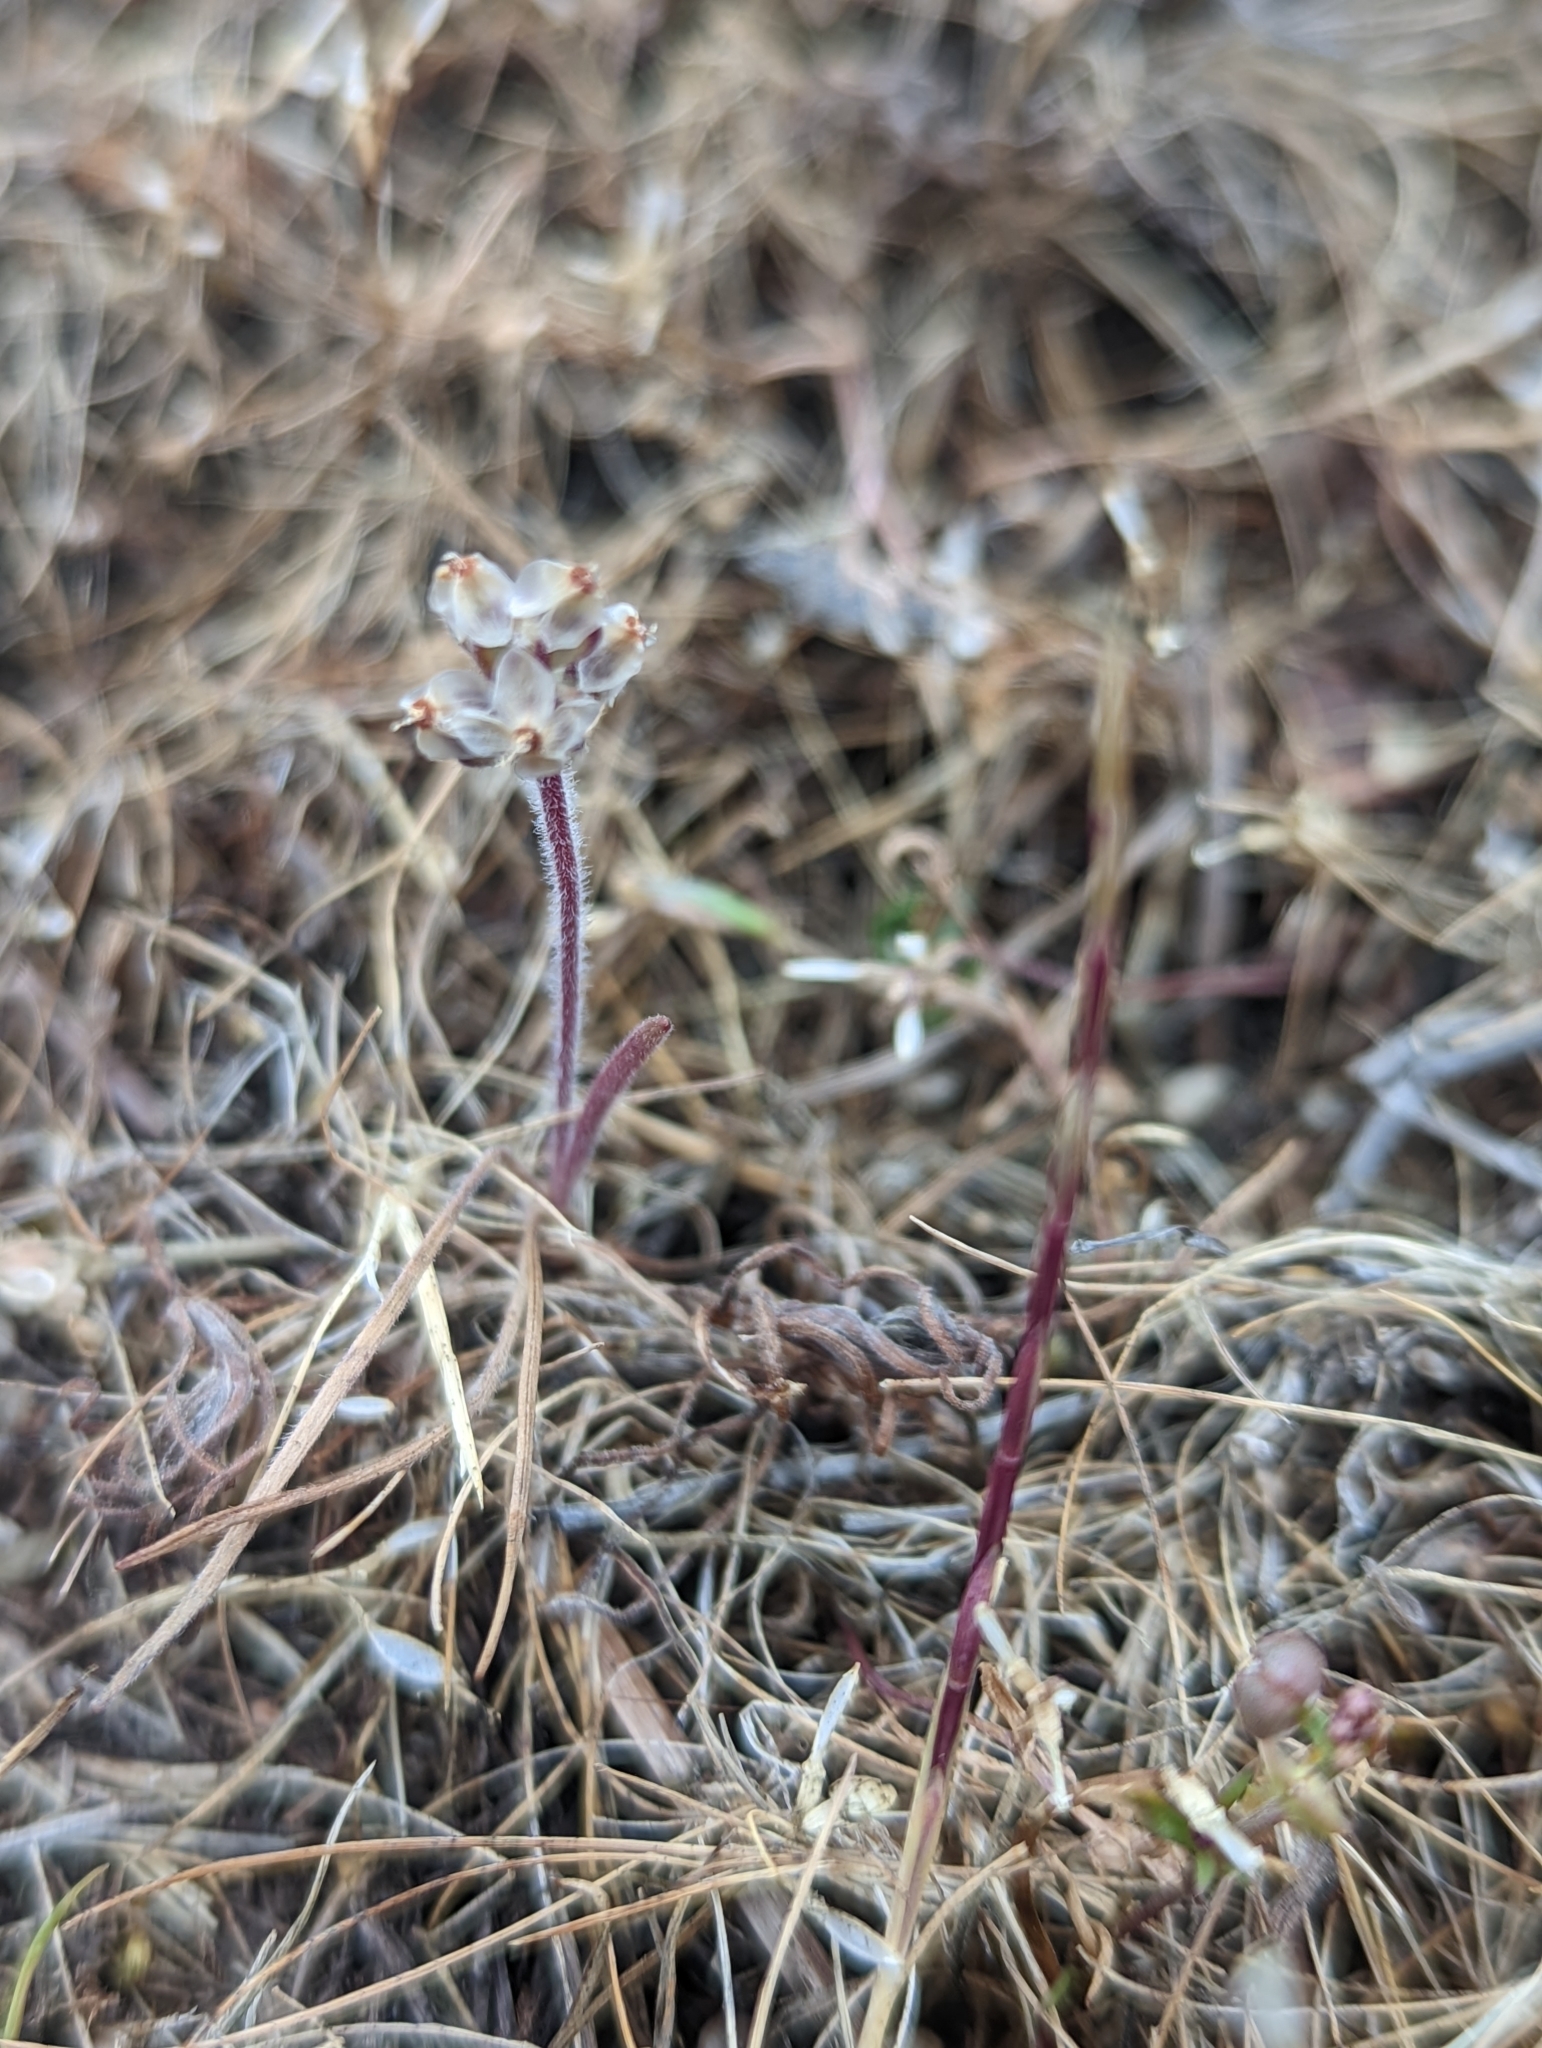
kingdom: Plantae
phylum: Tracheophyta
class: Magnoliopsida
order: Lamiales
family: Plantaginaceae
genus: Plantago
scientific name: Plantago erecta
